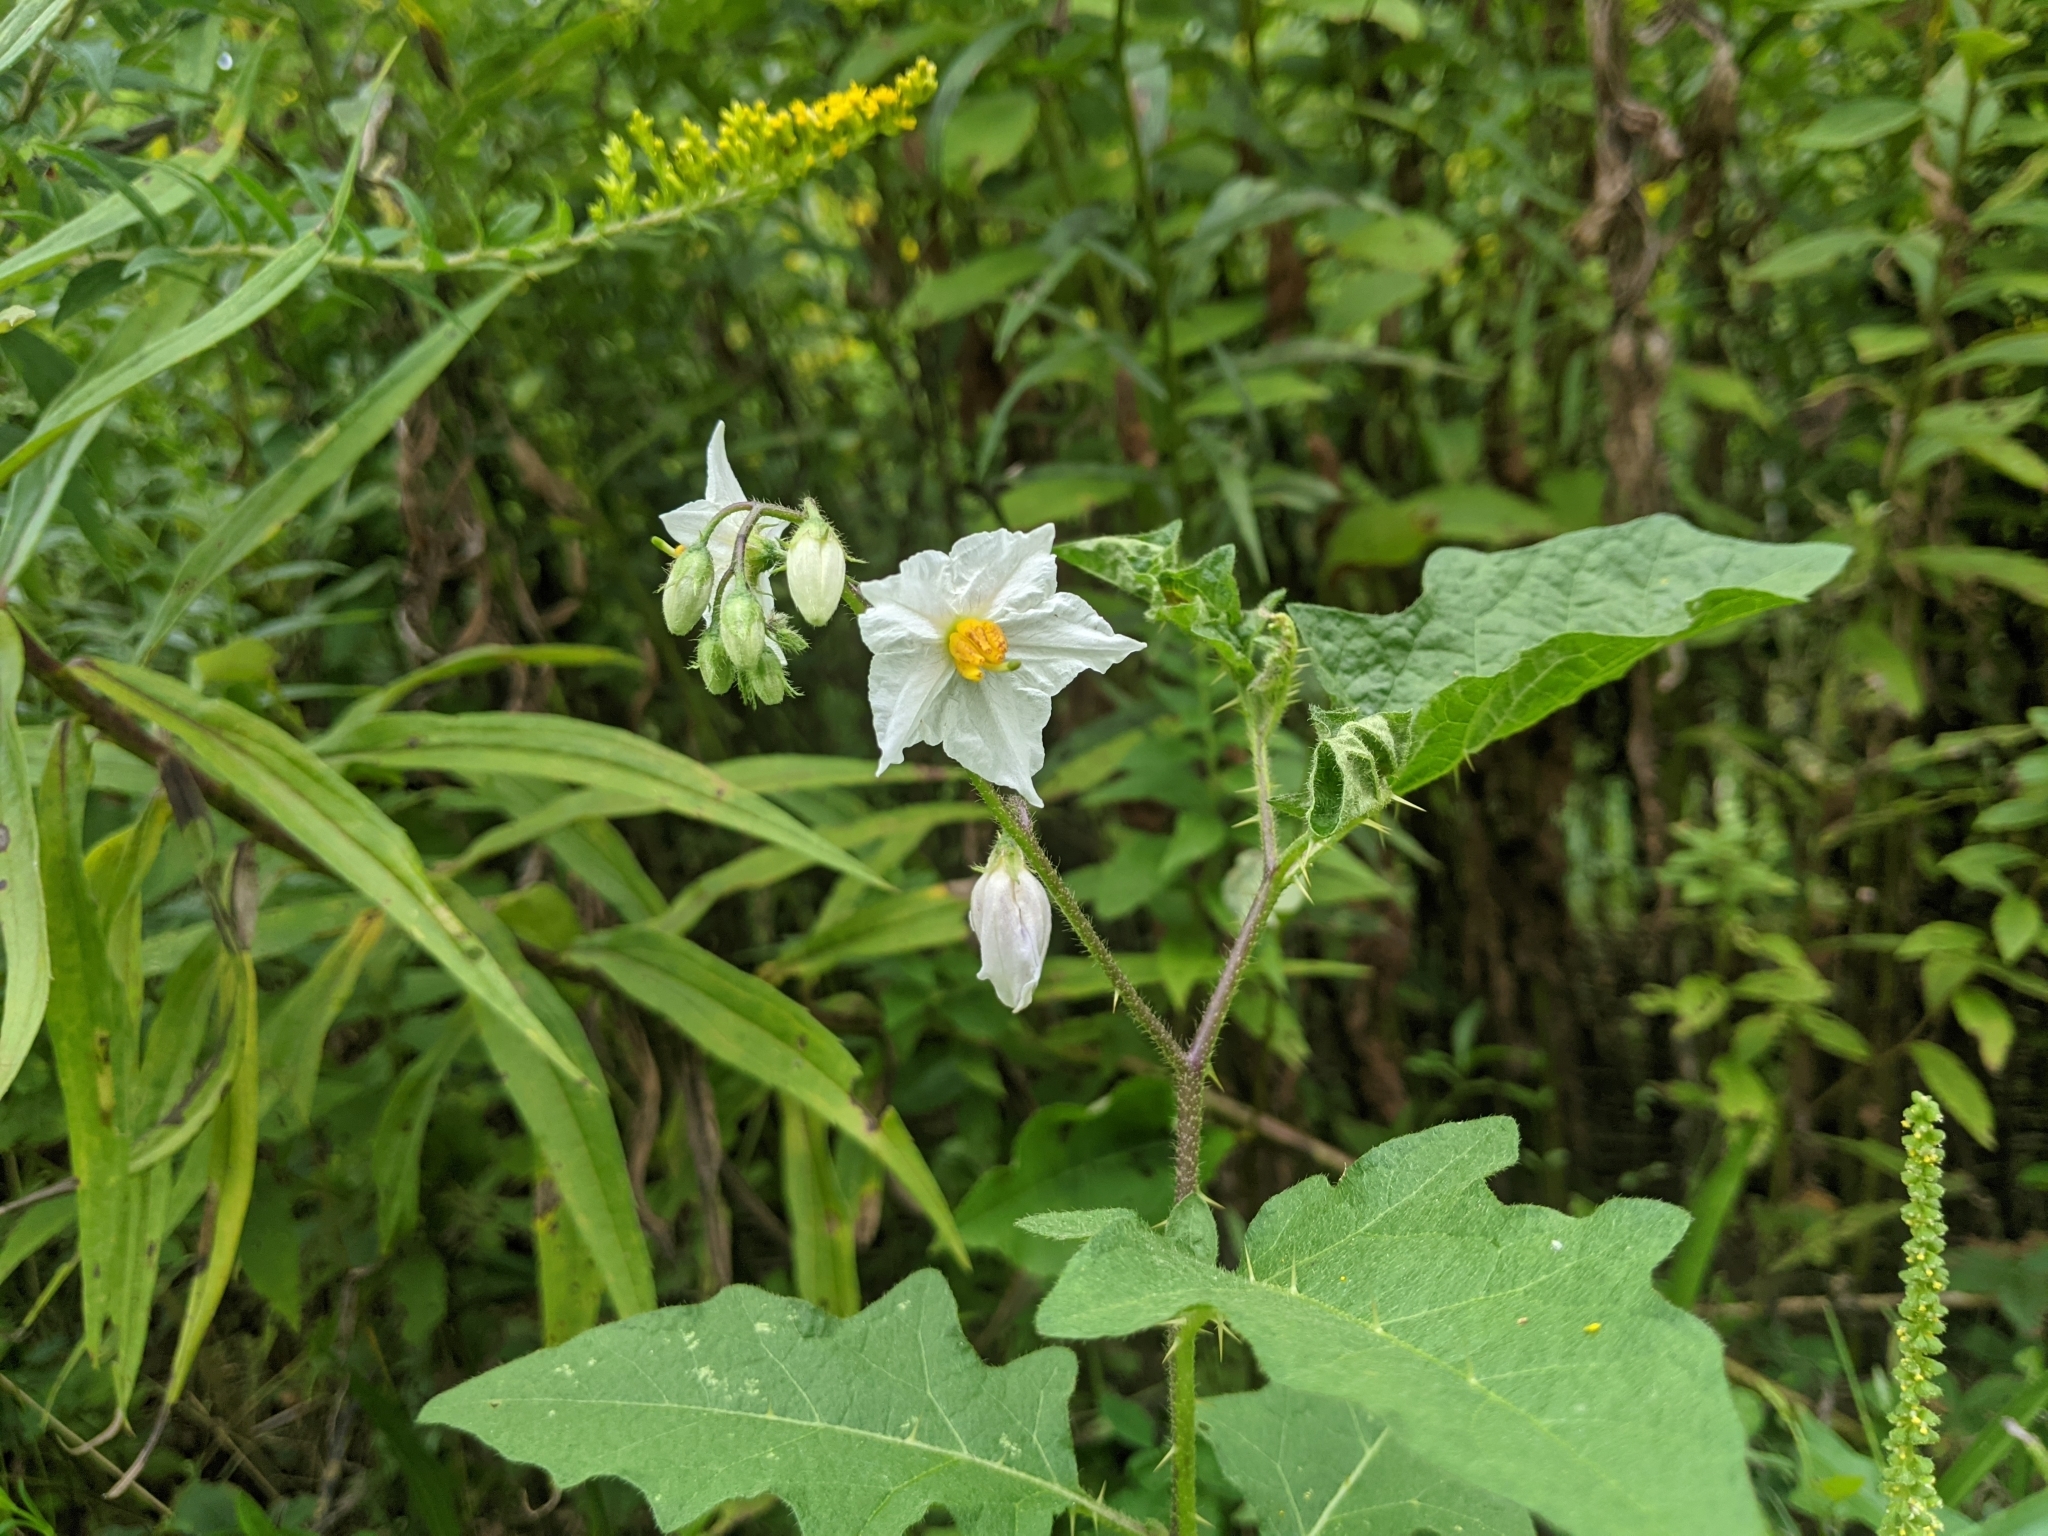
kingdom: Plantae
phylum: Tracheophyta
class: Magnoliopsida
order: Solanales
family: Solanaceae
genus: Solanum
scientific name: Solanum carolinense
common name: Horse-nettle
